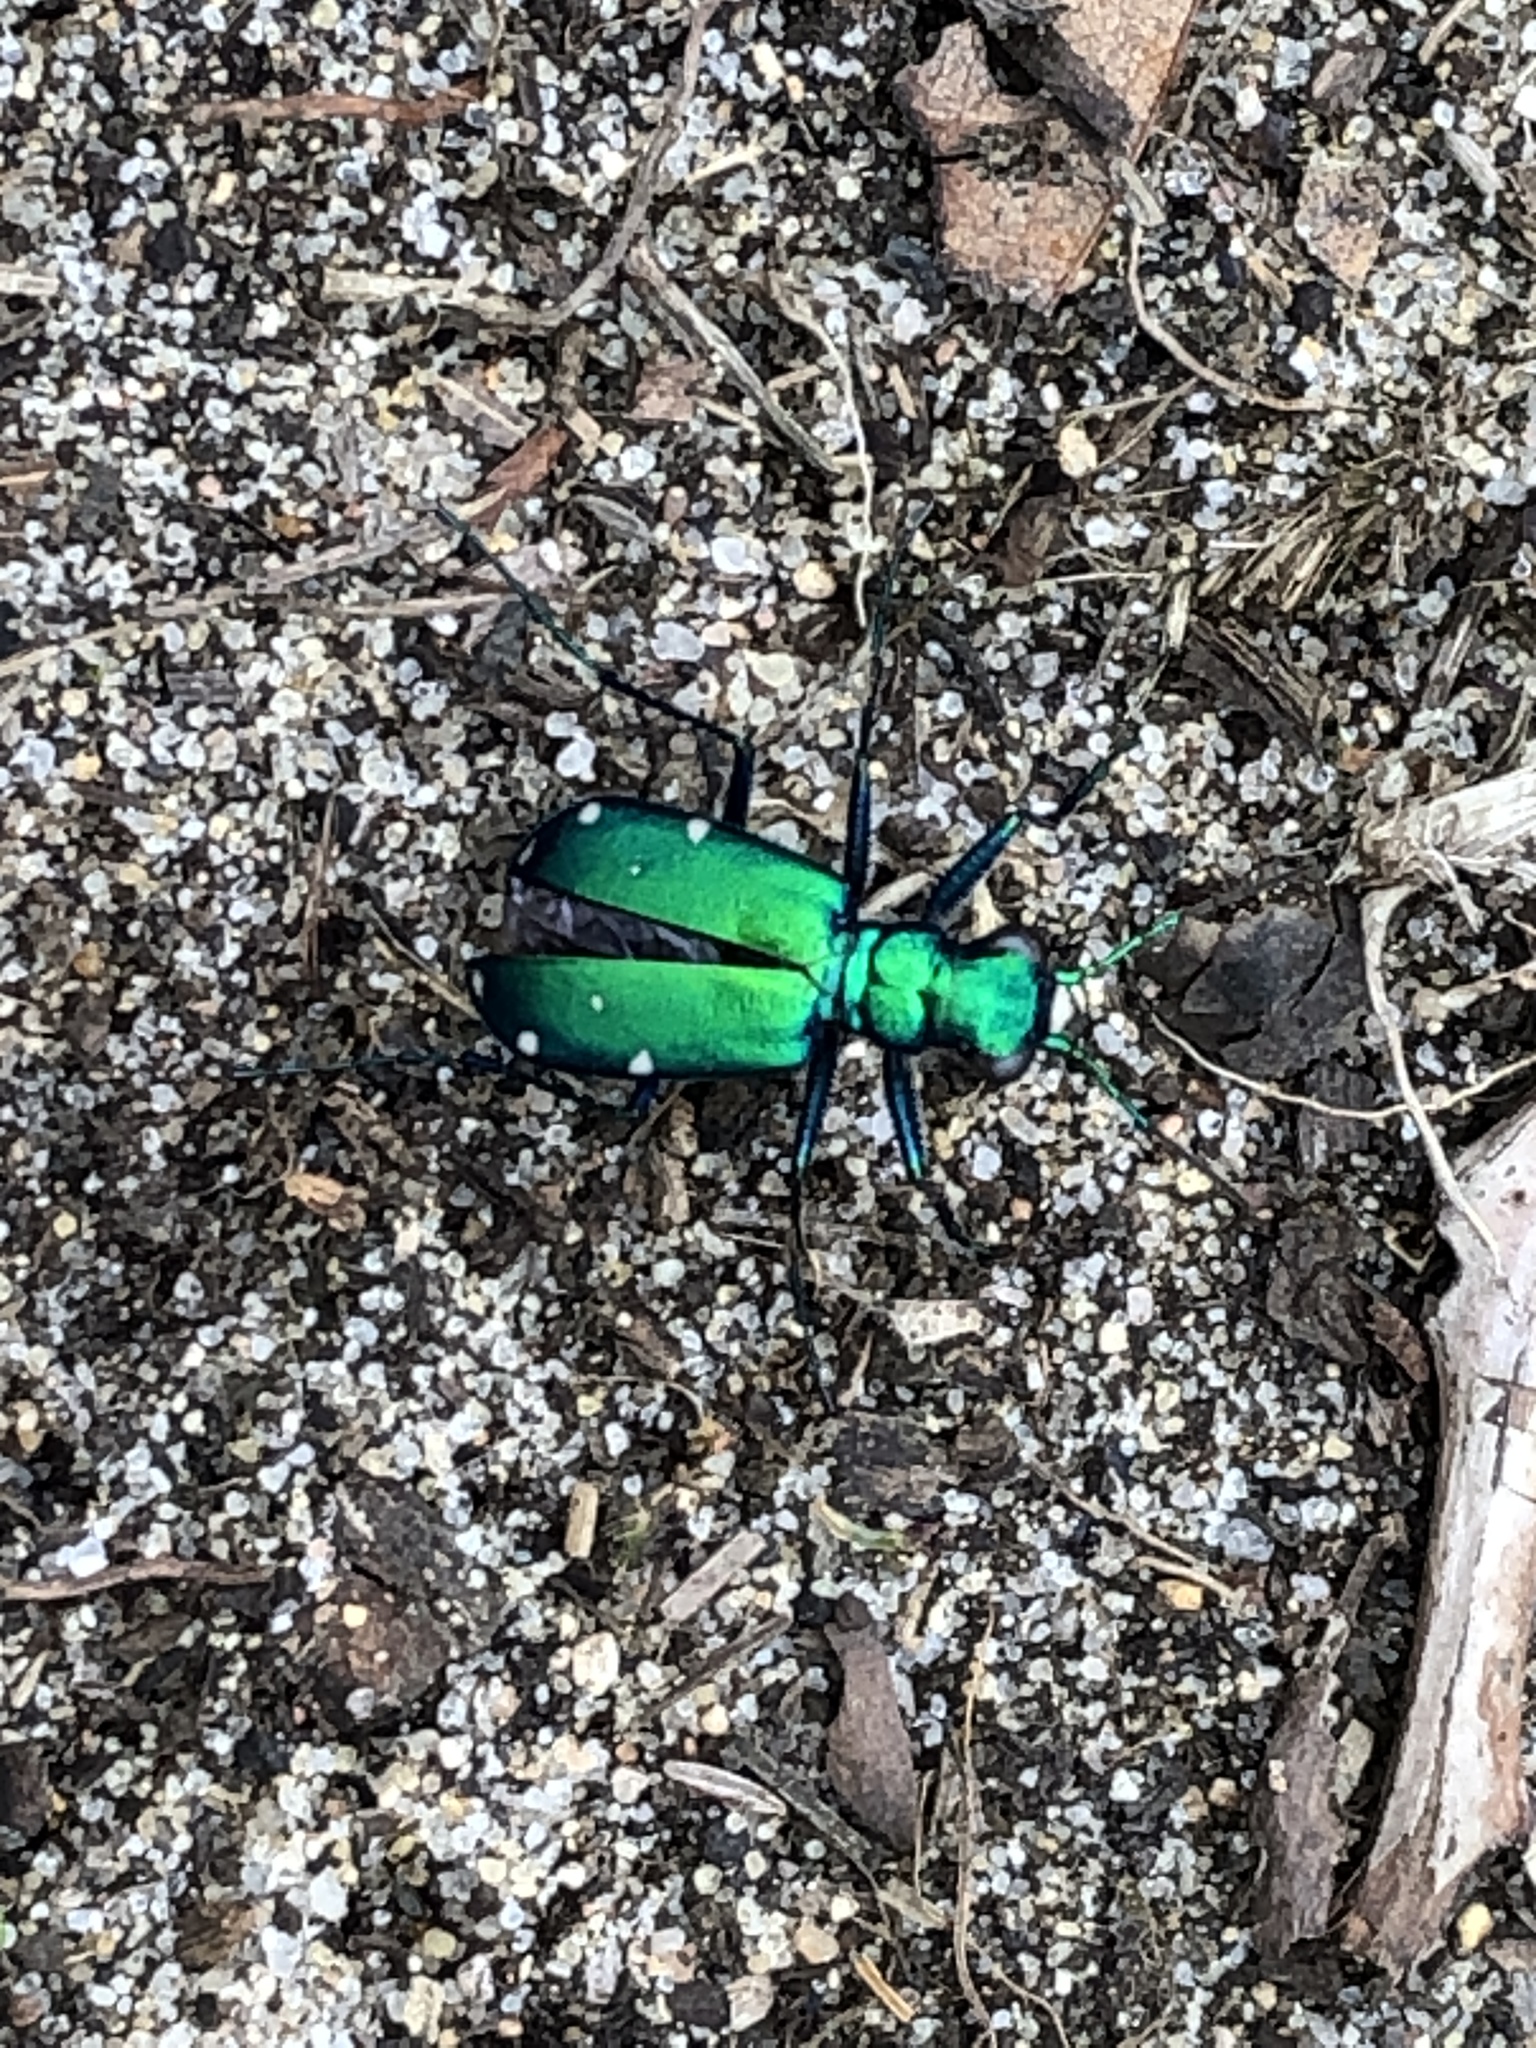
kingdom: Animalia
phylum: Arthropoda
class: Insecta
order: Coleoptera
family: Carabidae
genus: Cicindela
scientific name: Cicindela sexguttata
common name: Six-spotted tiger beetle
